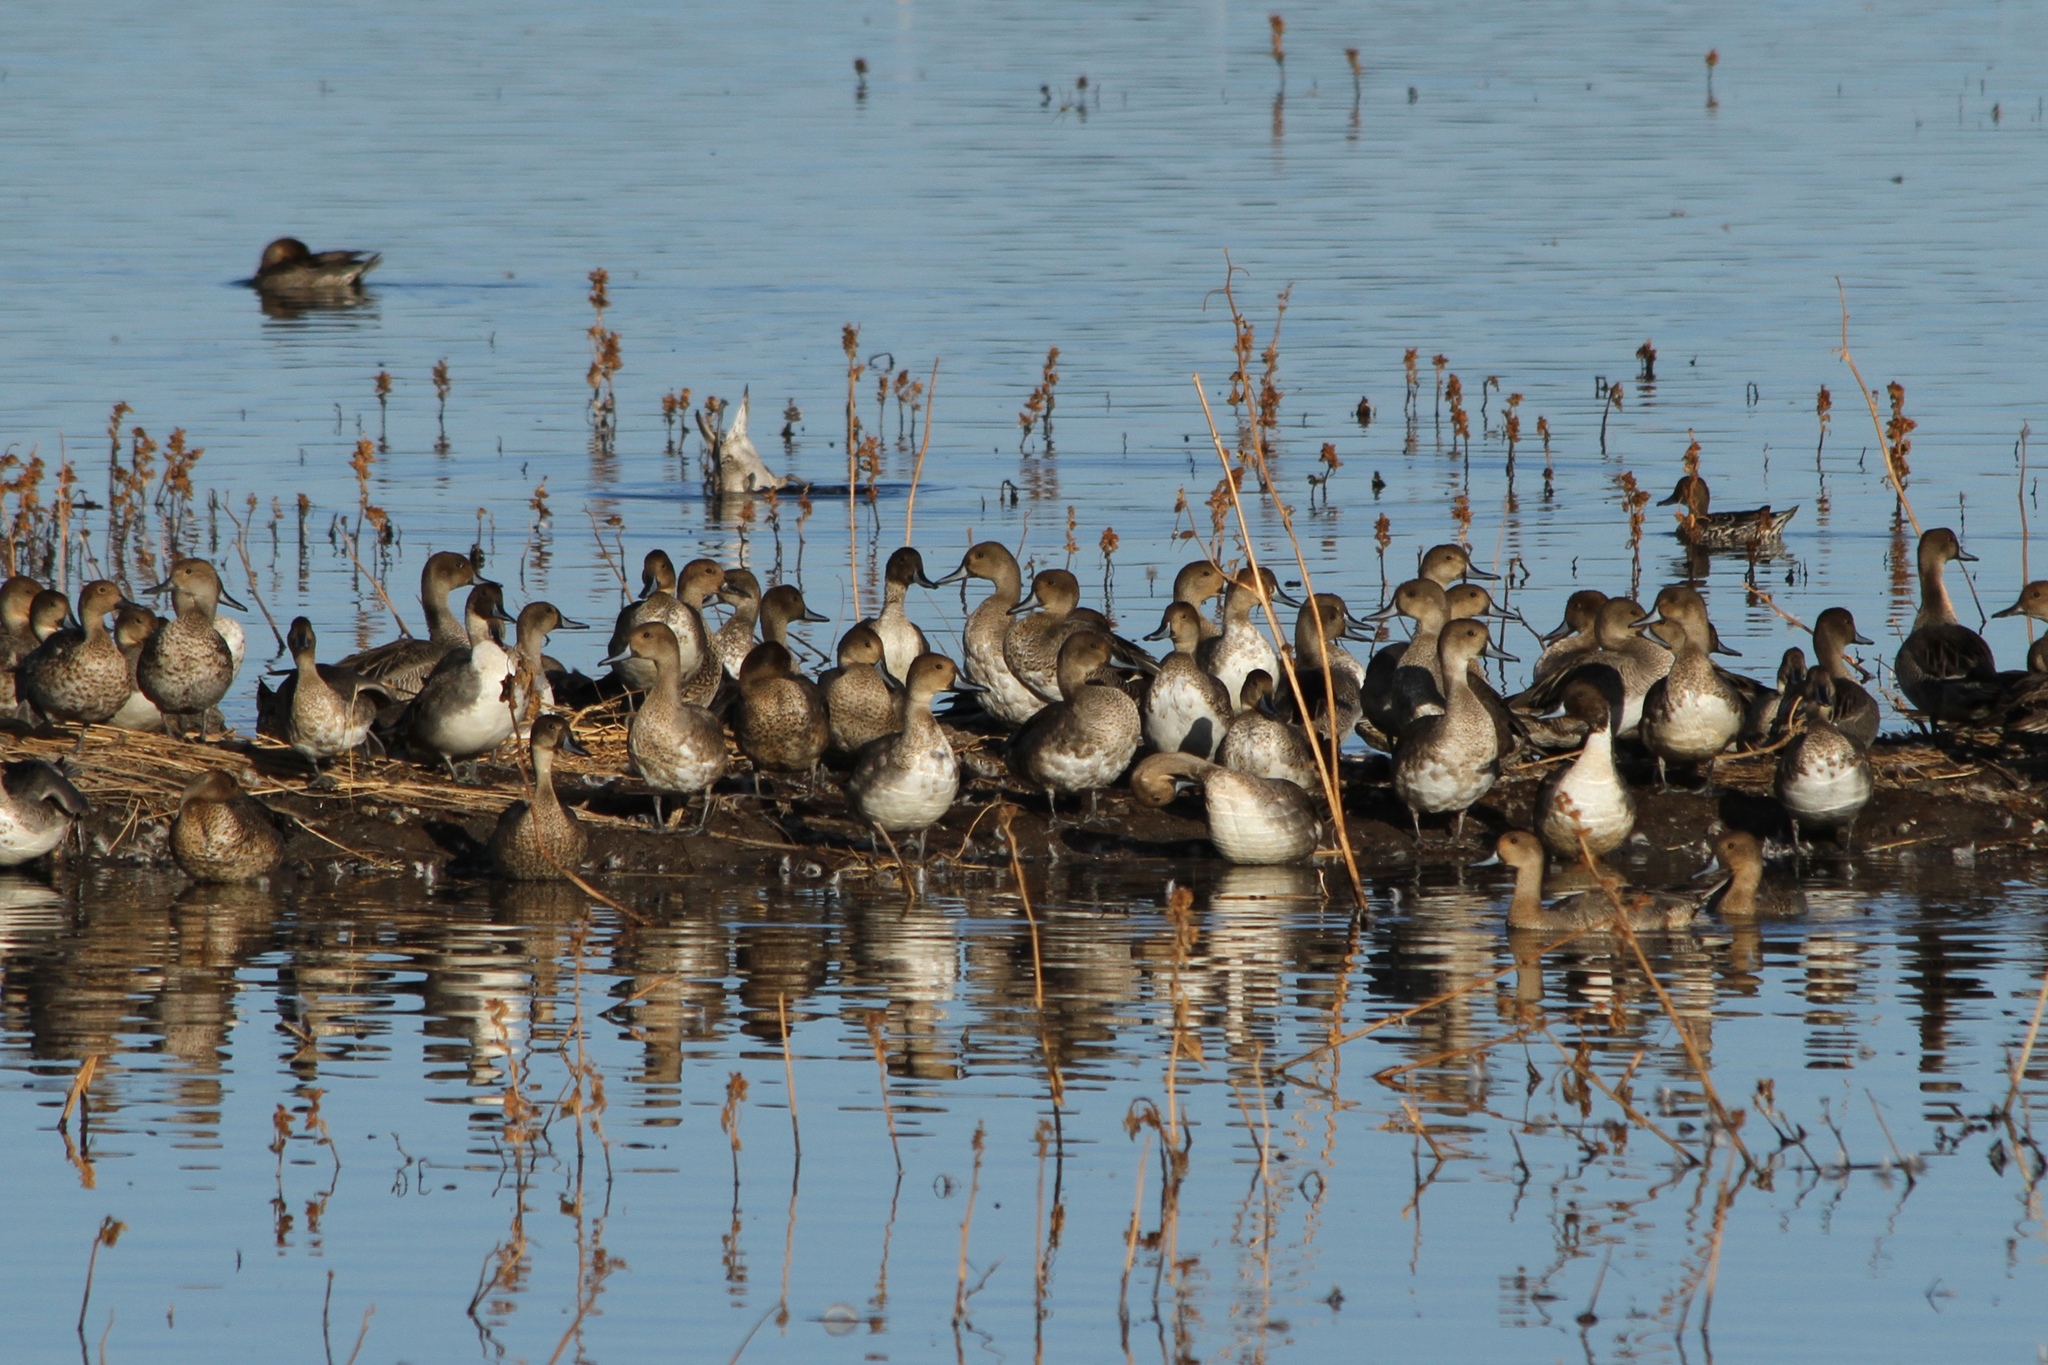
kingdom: Animalia
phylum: Chordata
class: Aves
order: Anseriformes
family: Anatidae
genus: Anas
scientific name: Anas acuta
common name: Northern pintail
